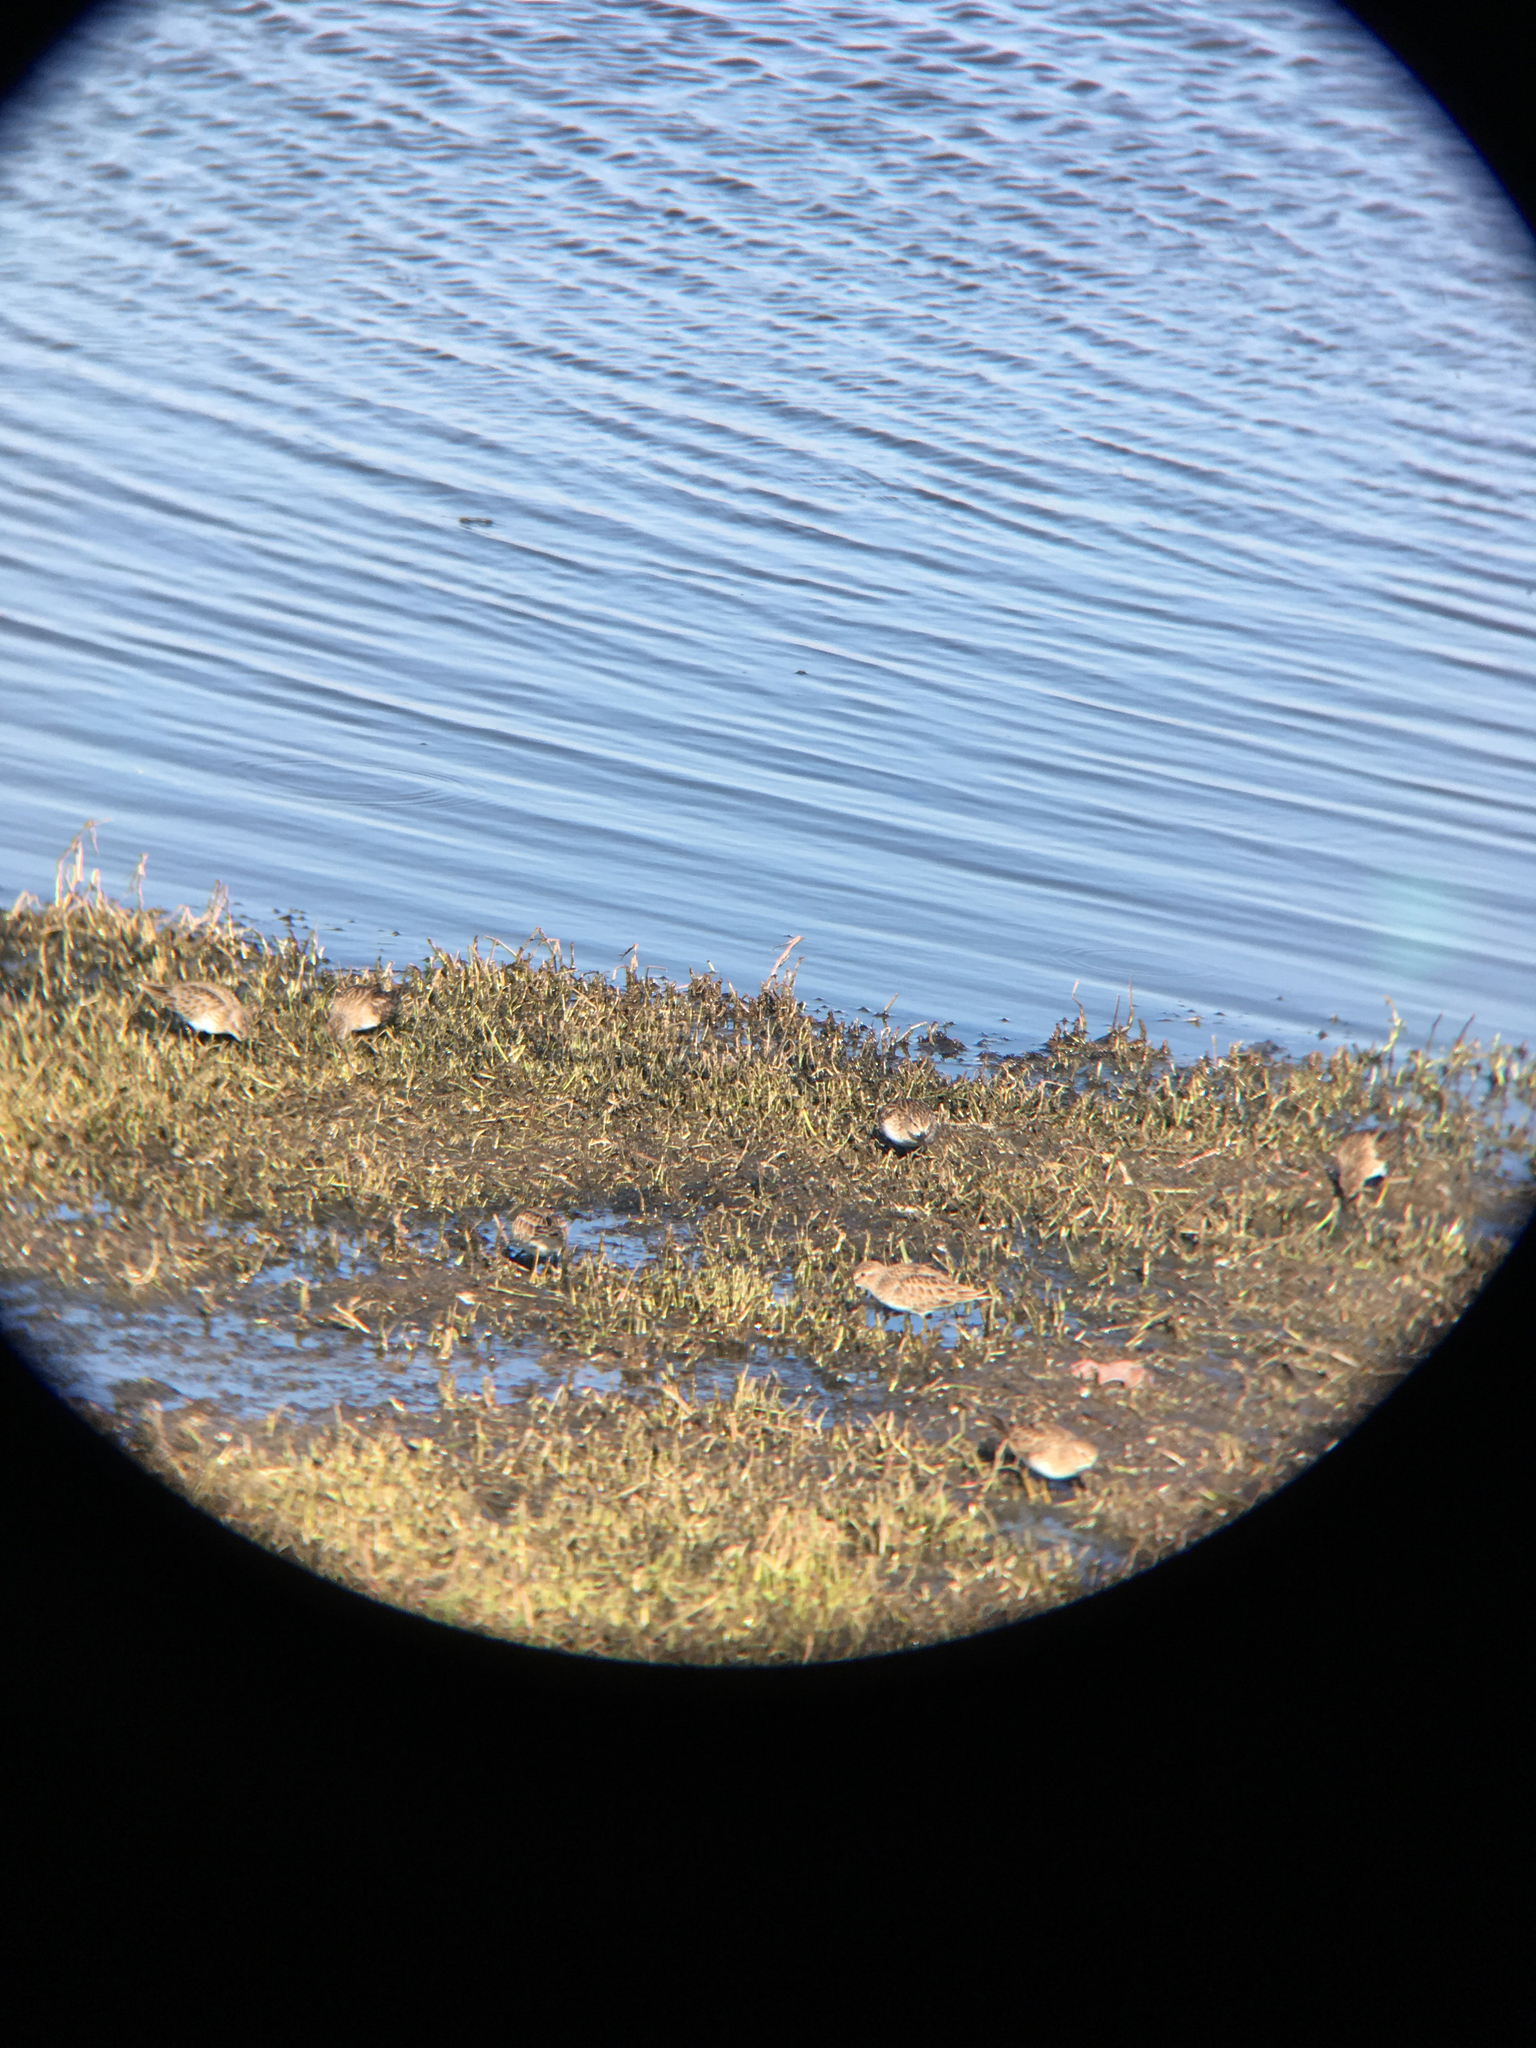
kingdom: Animalia
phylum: Chordata
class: Aves
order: Charadriiformes
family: Scolopacidae
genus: Calidris
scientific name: Calidris minutilla
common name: Least sandpiper
